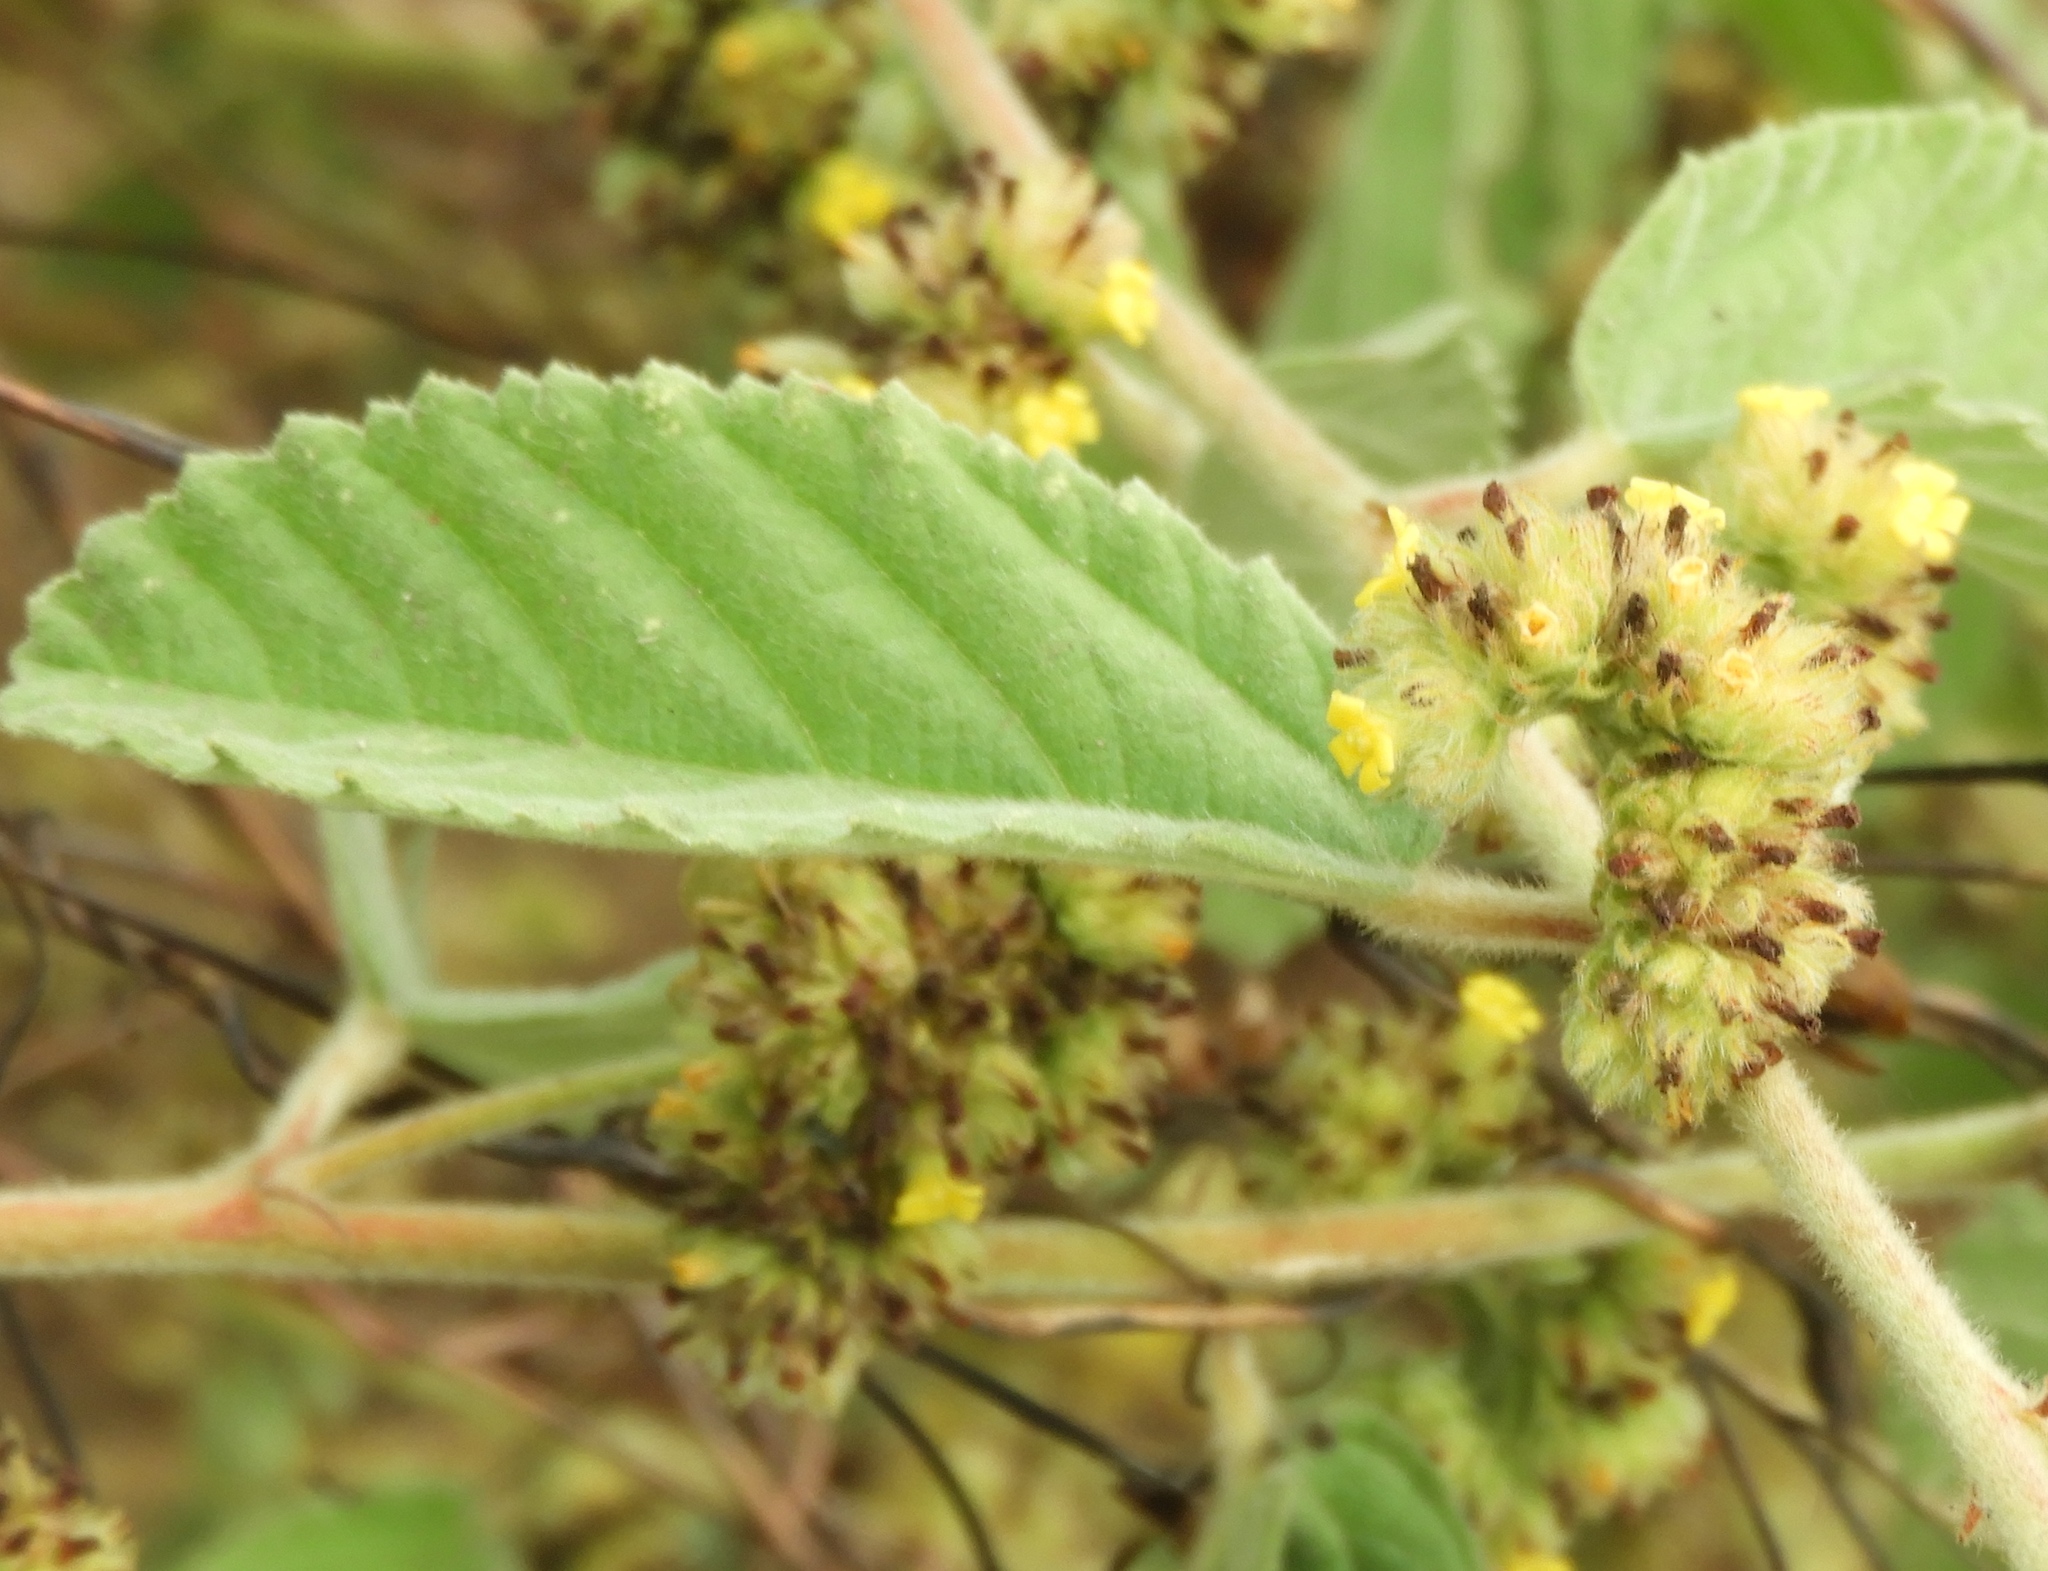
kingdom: Plantae
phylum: Tracheophyta
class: Magnoliopsida
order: Malvales
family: Malvaceae
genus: Waltheria
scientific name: Waltheria indica
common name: Leather-coat
